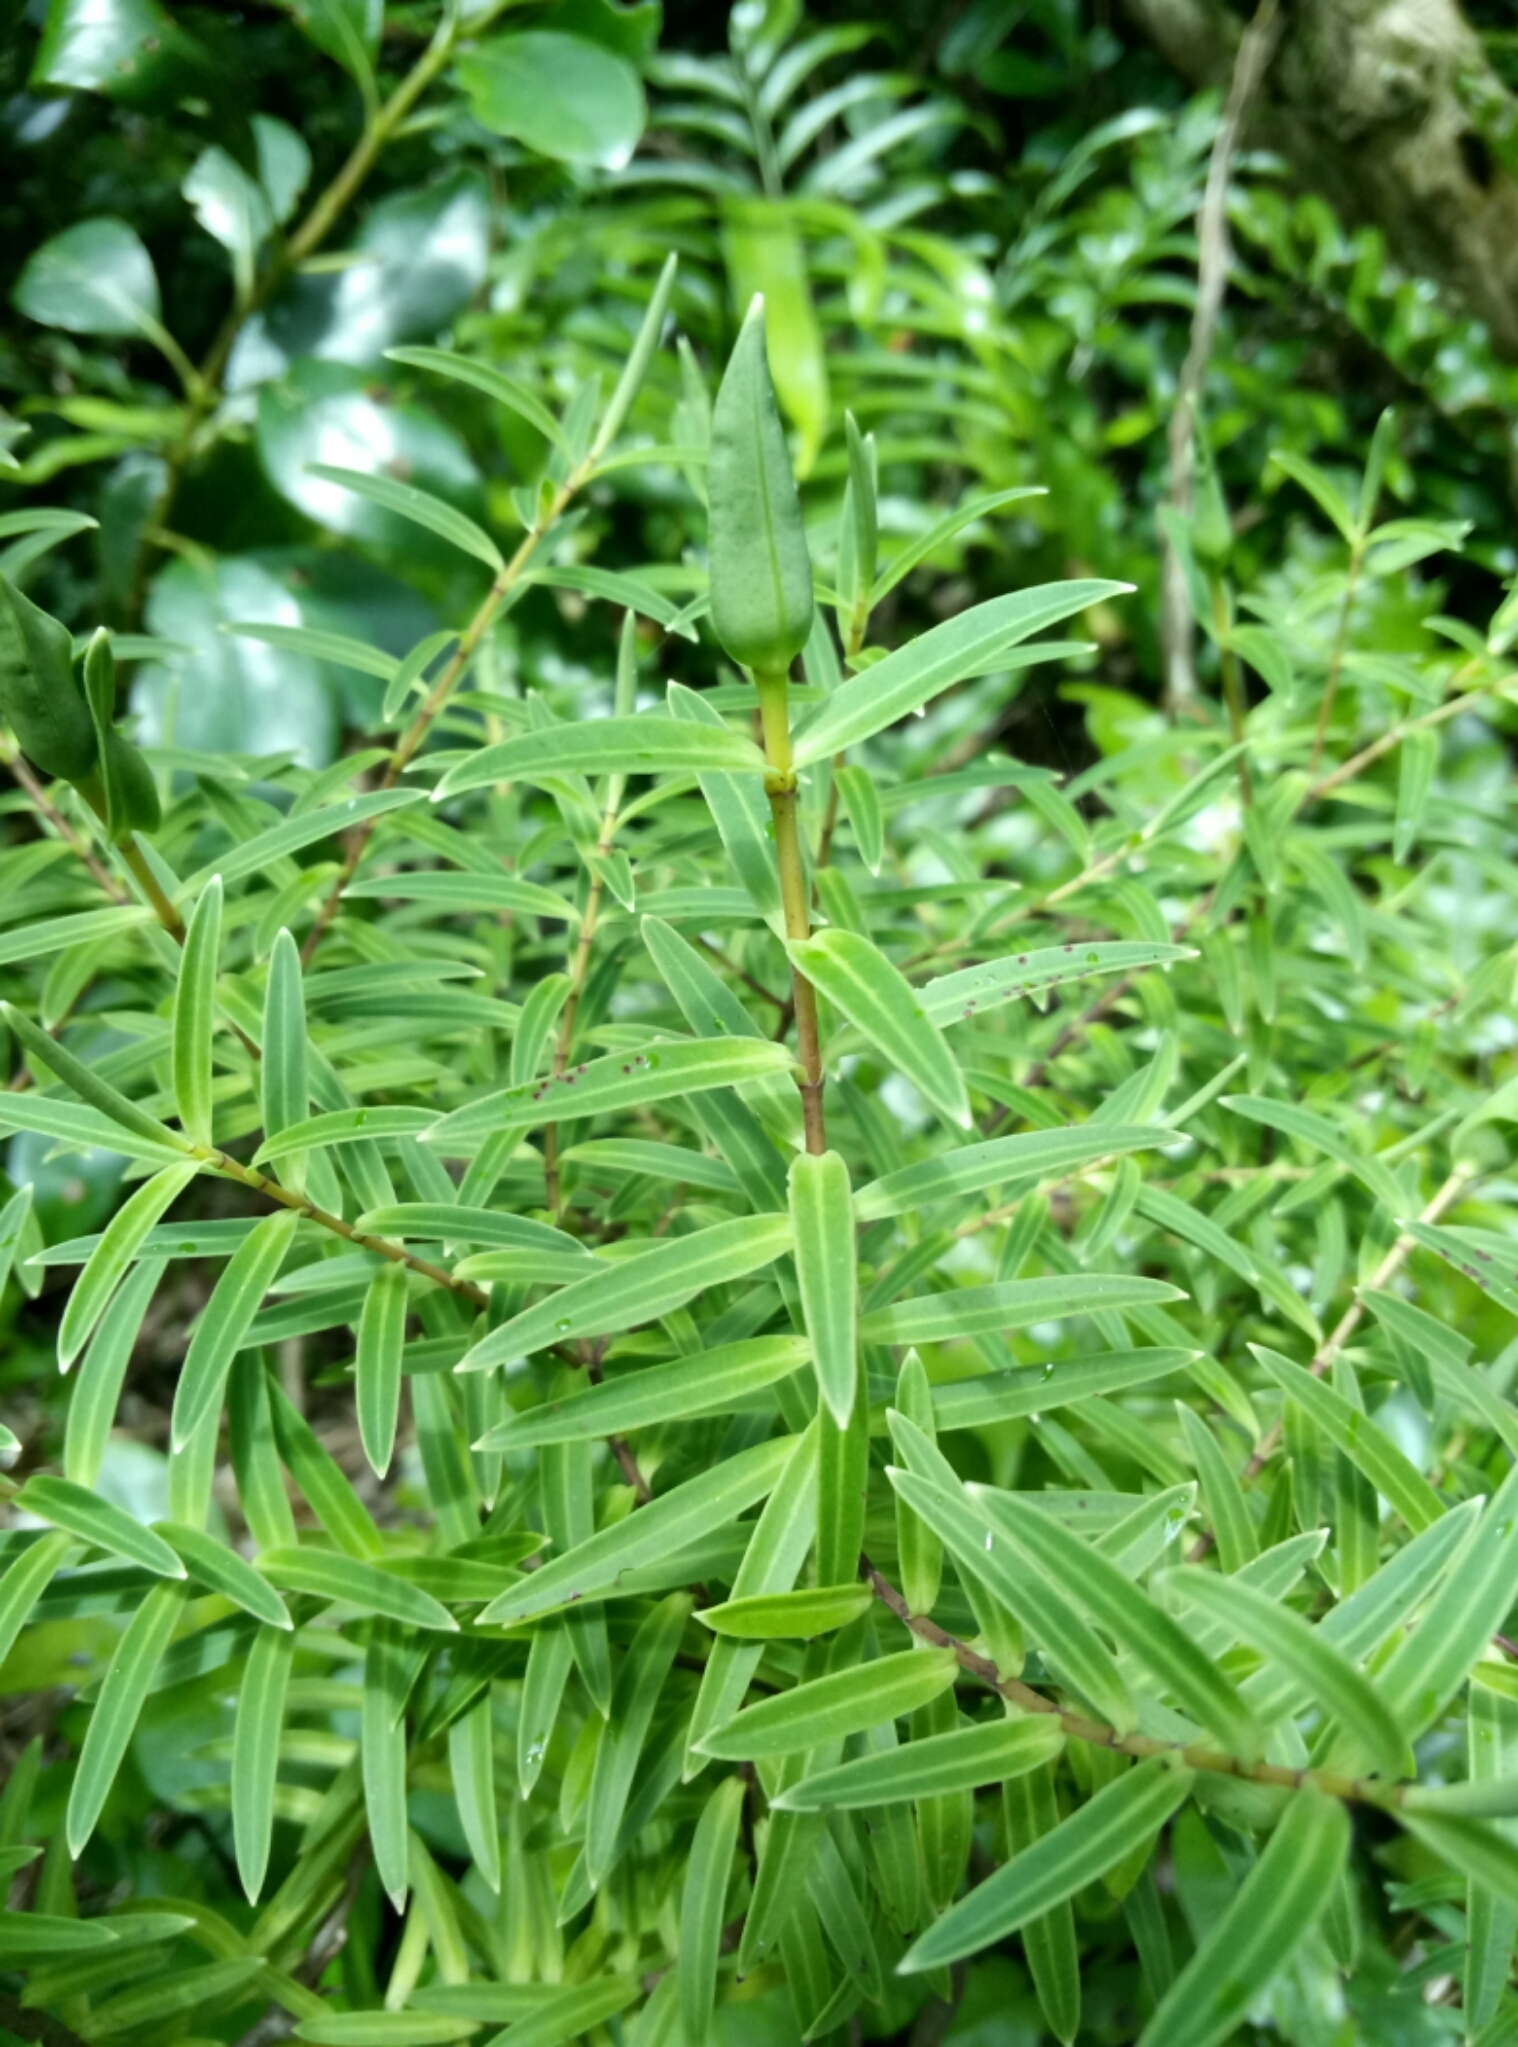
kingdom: Plantae
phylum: Tracheophyta
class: Magnoliopsida
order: Lamiales
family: Plantaginaceae
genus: Veronica
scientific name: Veronica parviflora
